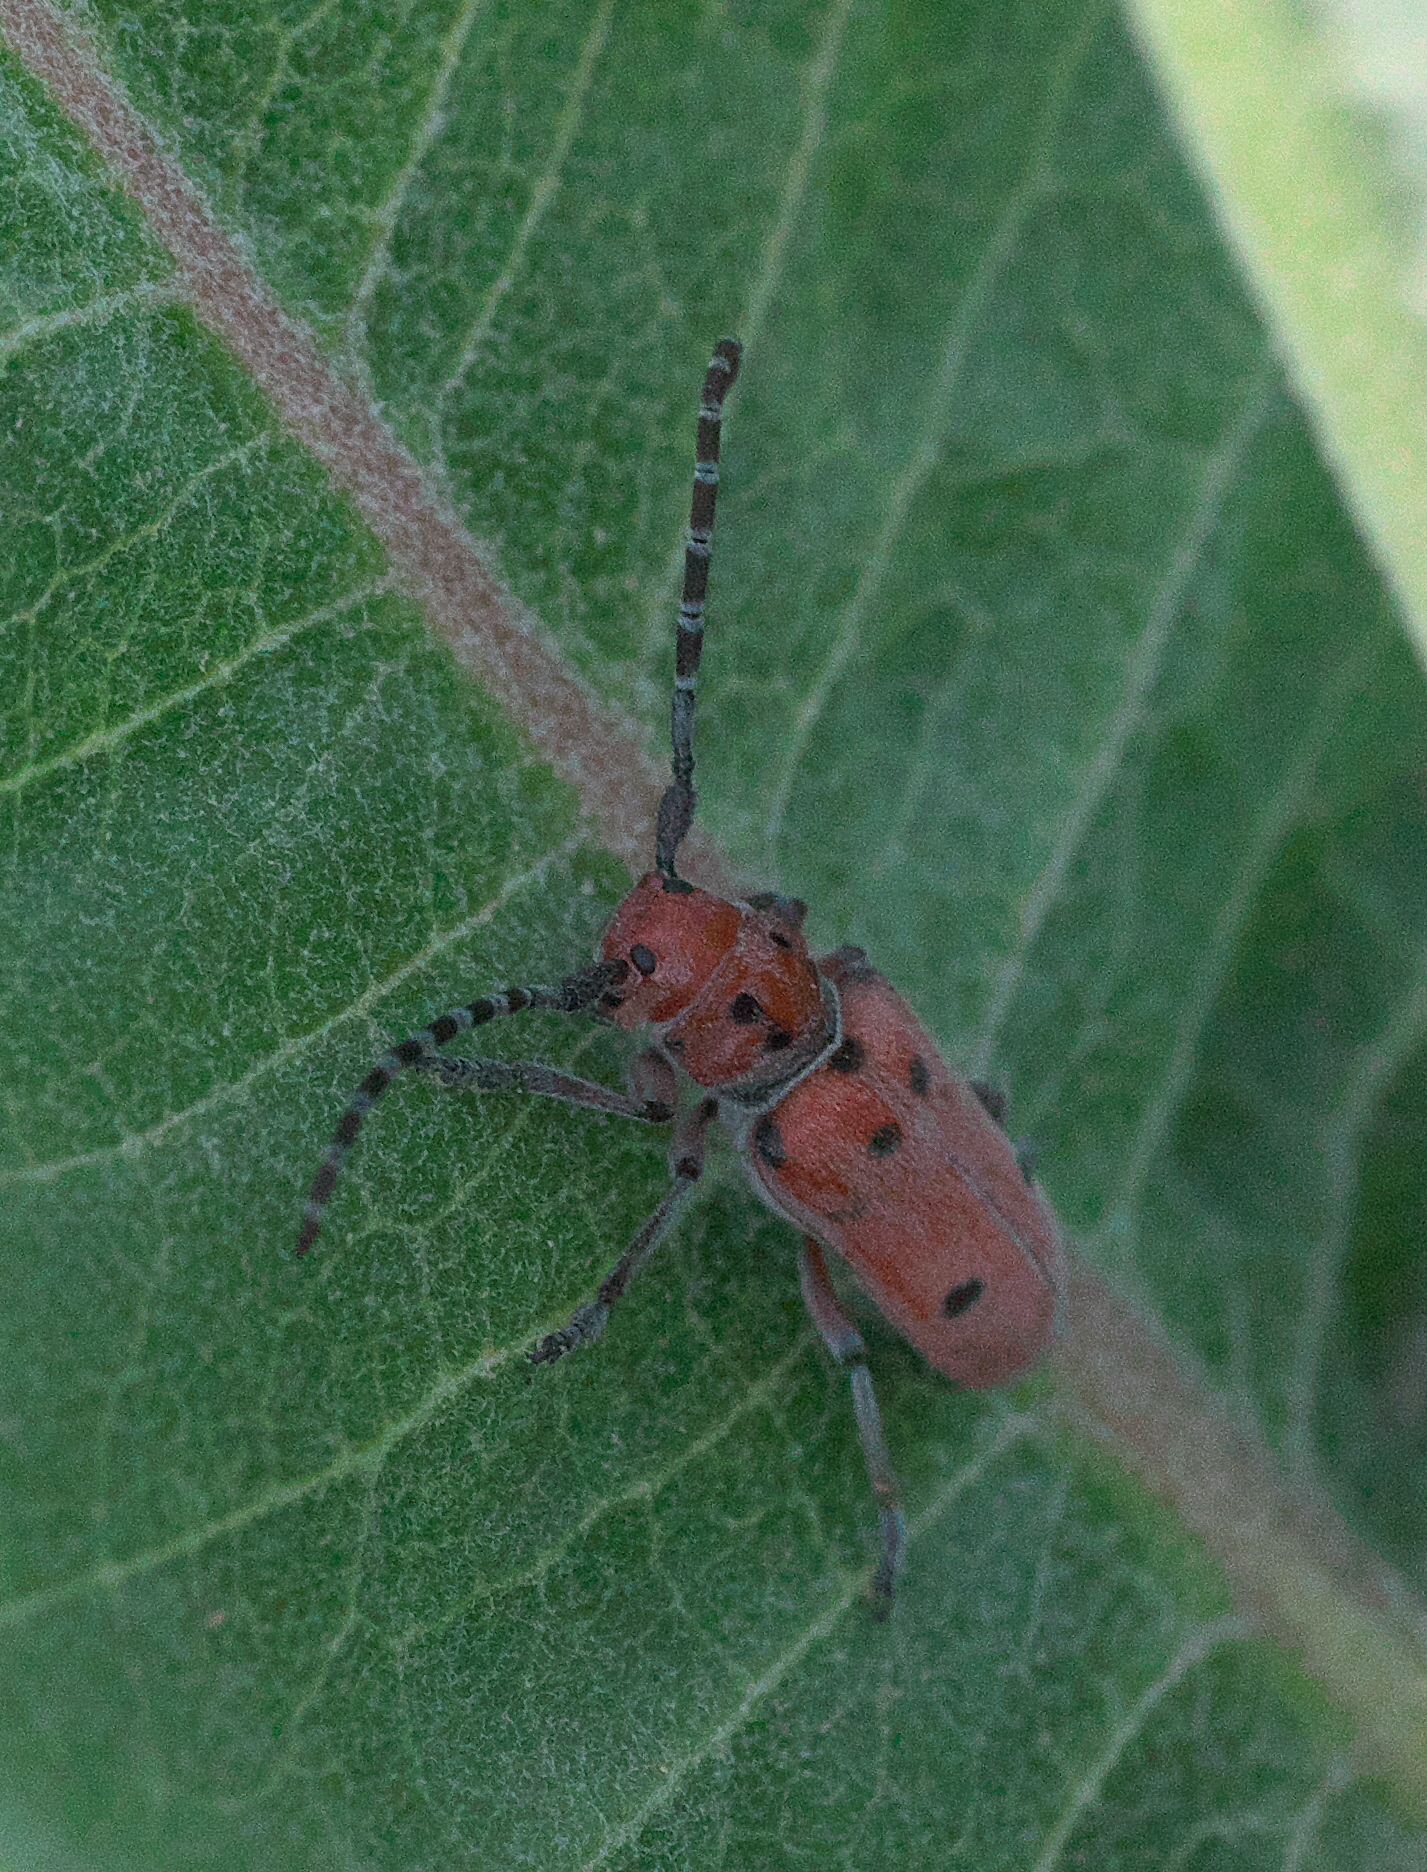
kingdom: Animalia
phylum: Arthropoda
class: Insecta
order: Coleoptera
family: Cerambycidae
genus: Tetraopes
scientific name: Tetraopes femoratus
